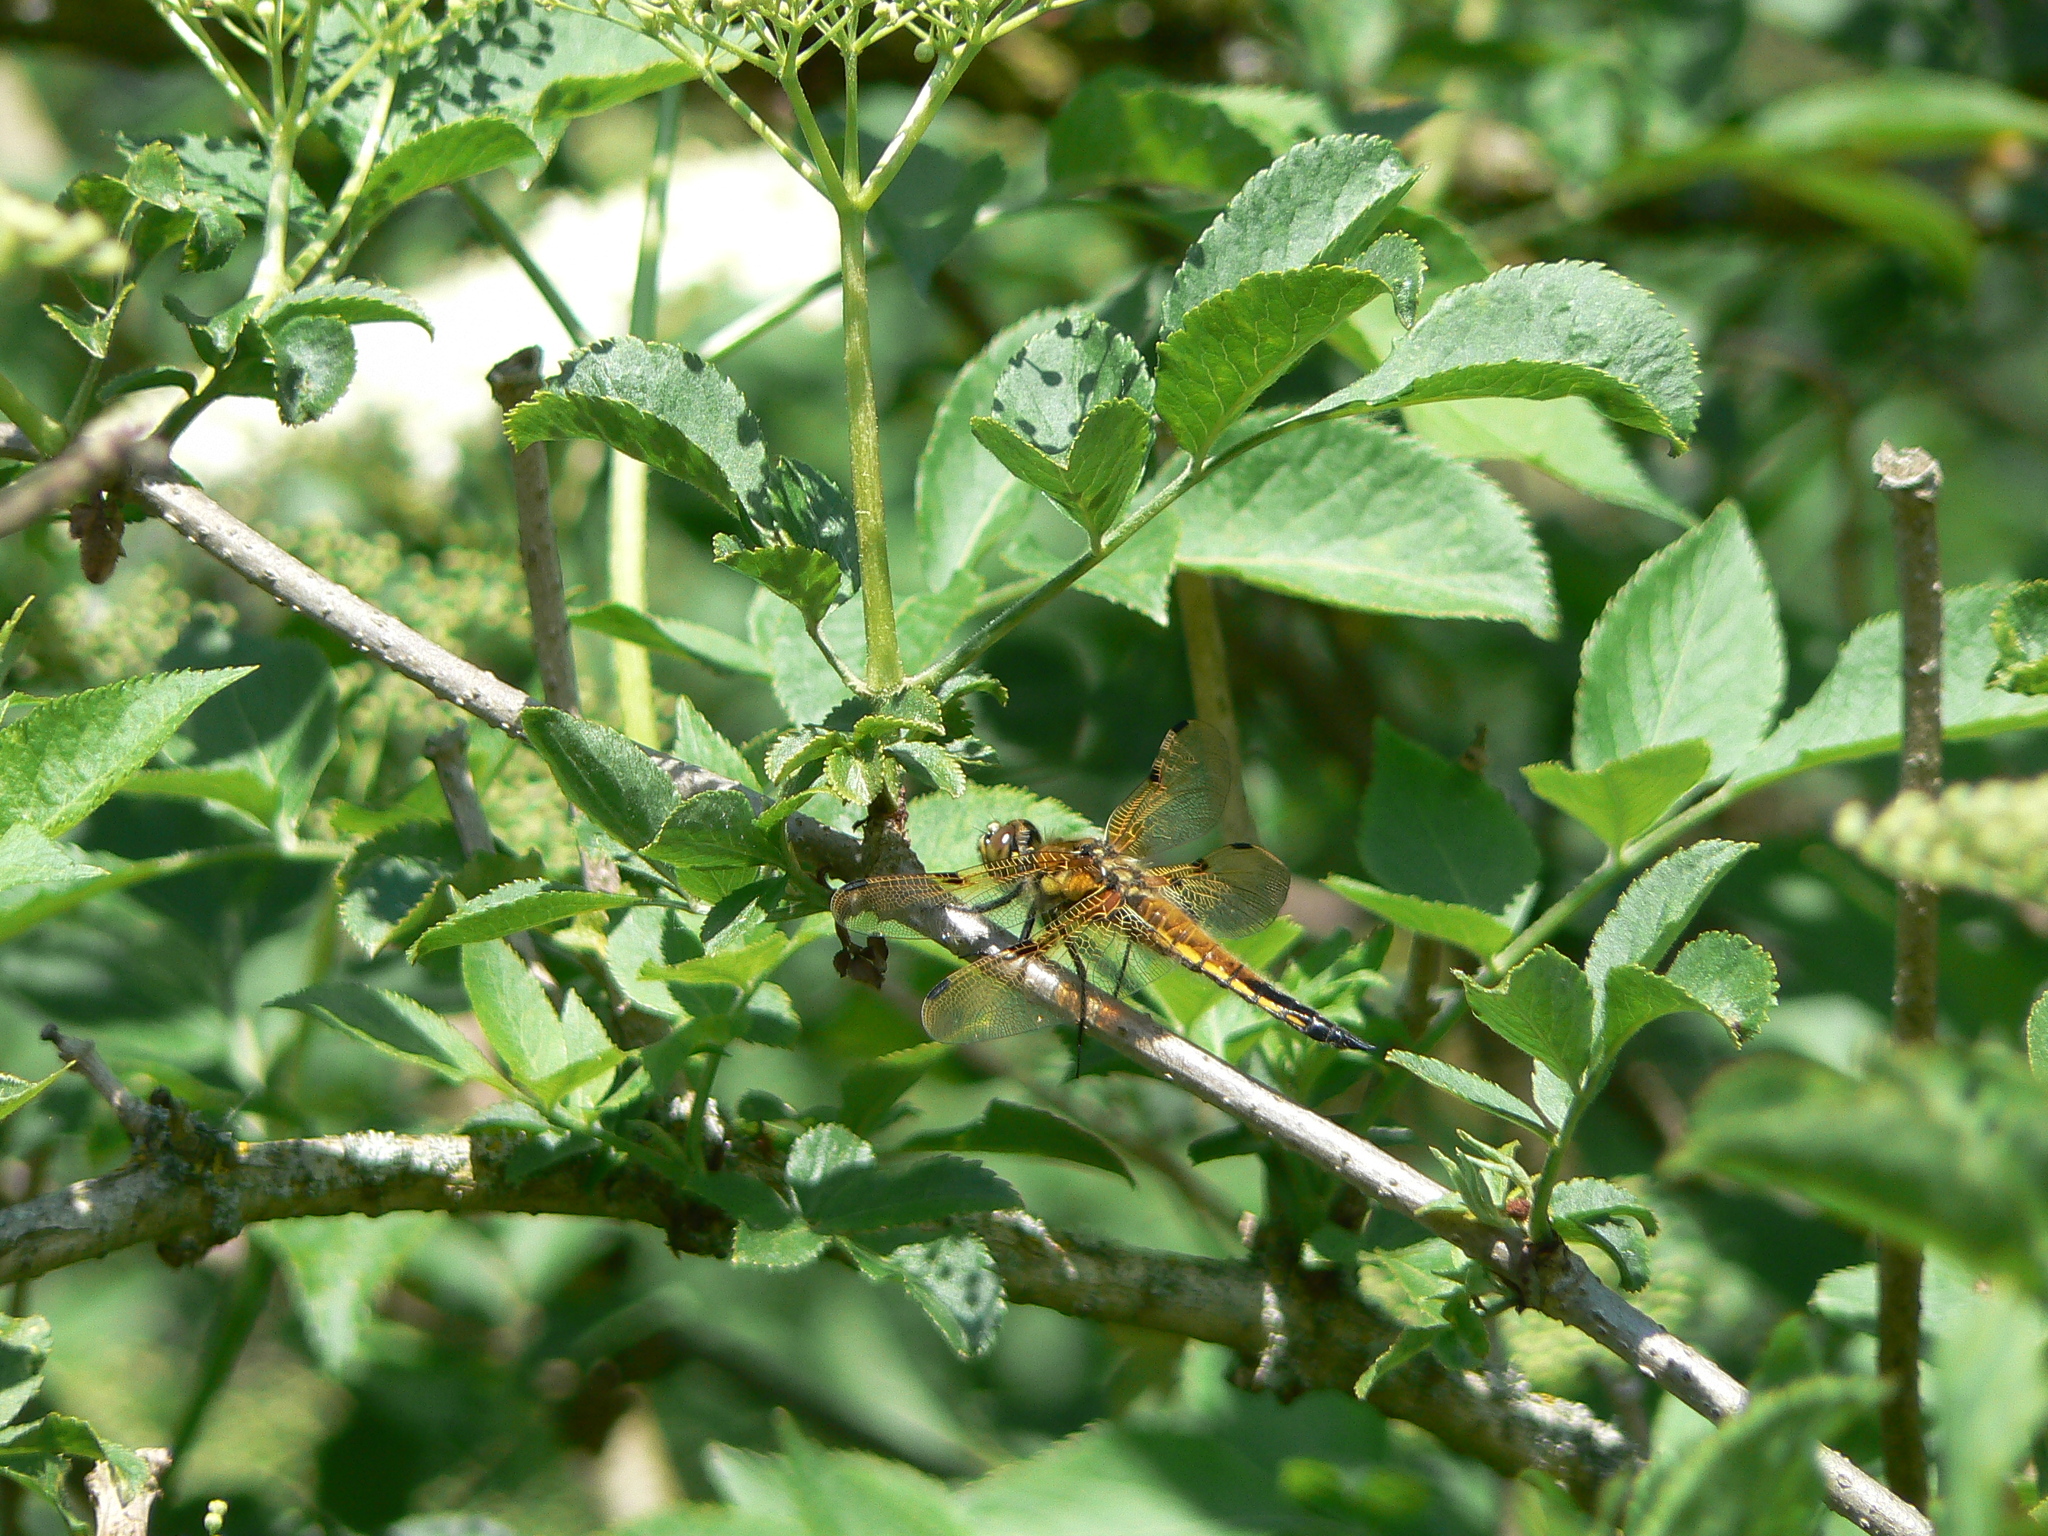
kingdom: Animalia
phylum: Arthropoda
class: Insecta
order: Odonata
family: Libellulidae
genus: Libellula
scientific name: Libellula quadrimaculata
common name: Four-spotted chaser
